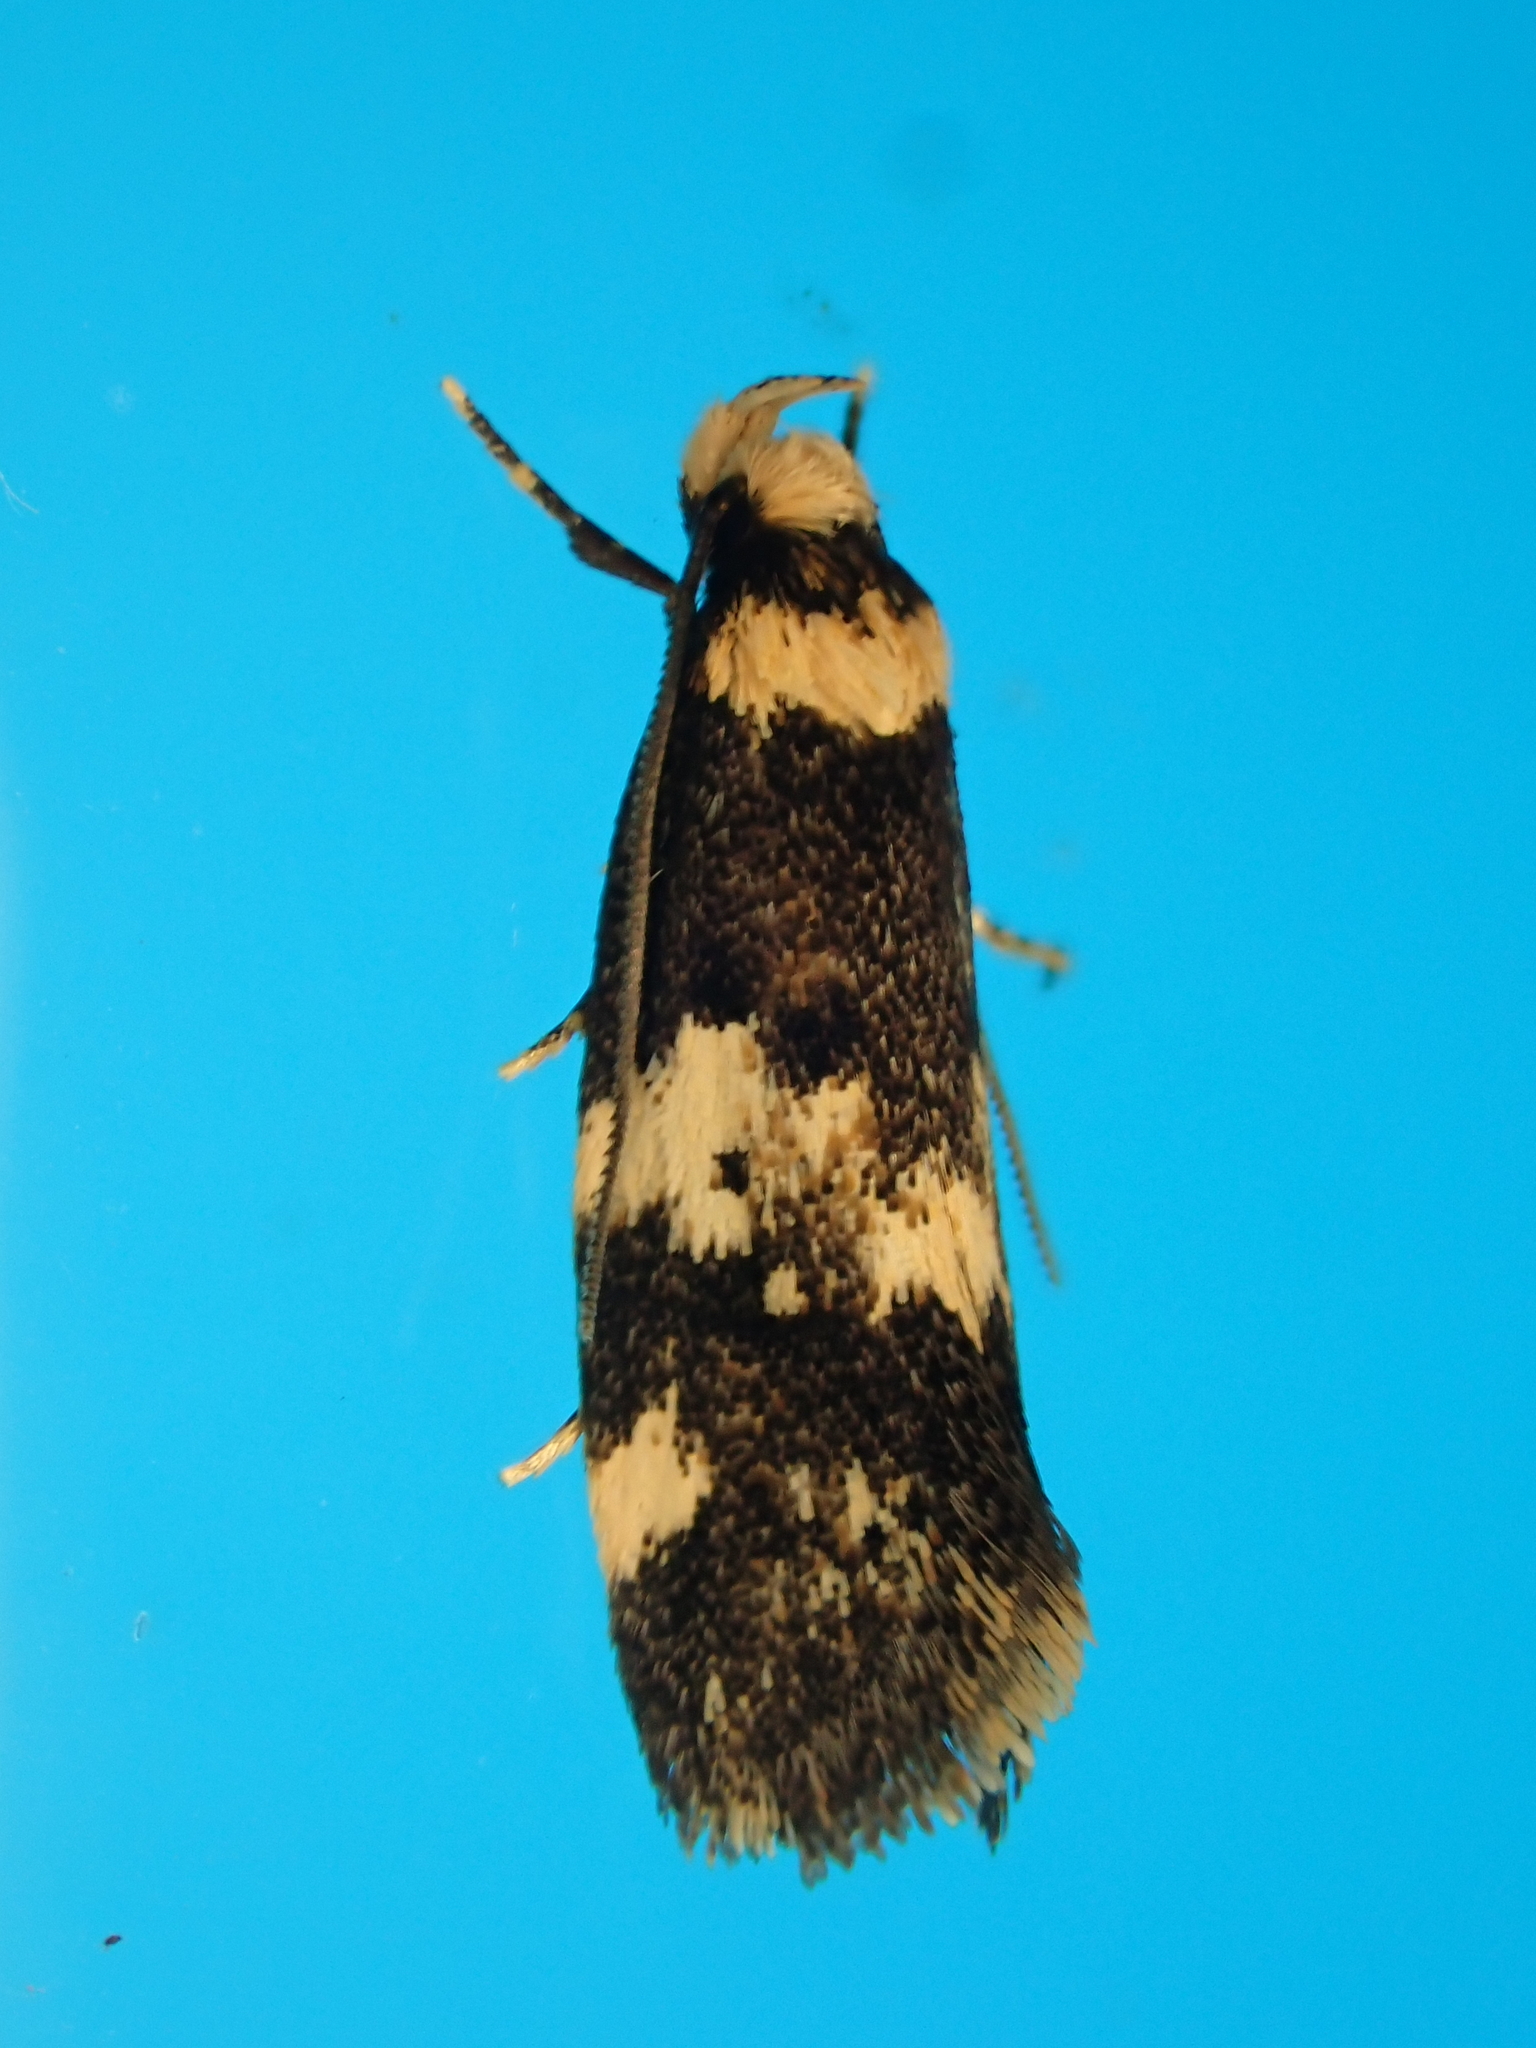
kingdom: Animalia
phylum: Arthropoda
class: Insecta
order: Lepidoptera
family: Oecophoridae
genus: Sphyrelata
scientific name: Sphyrelata amotella
